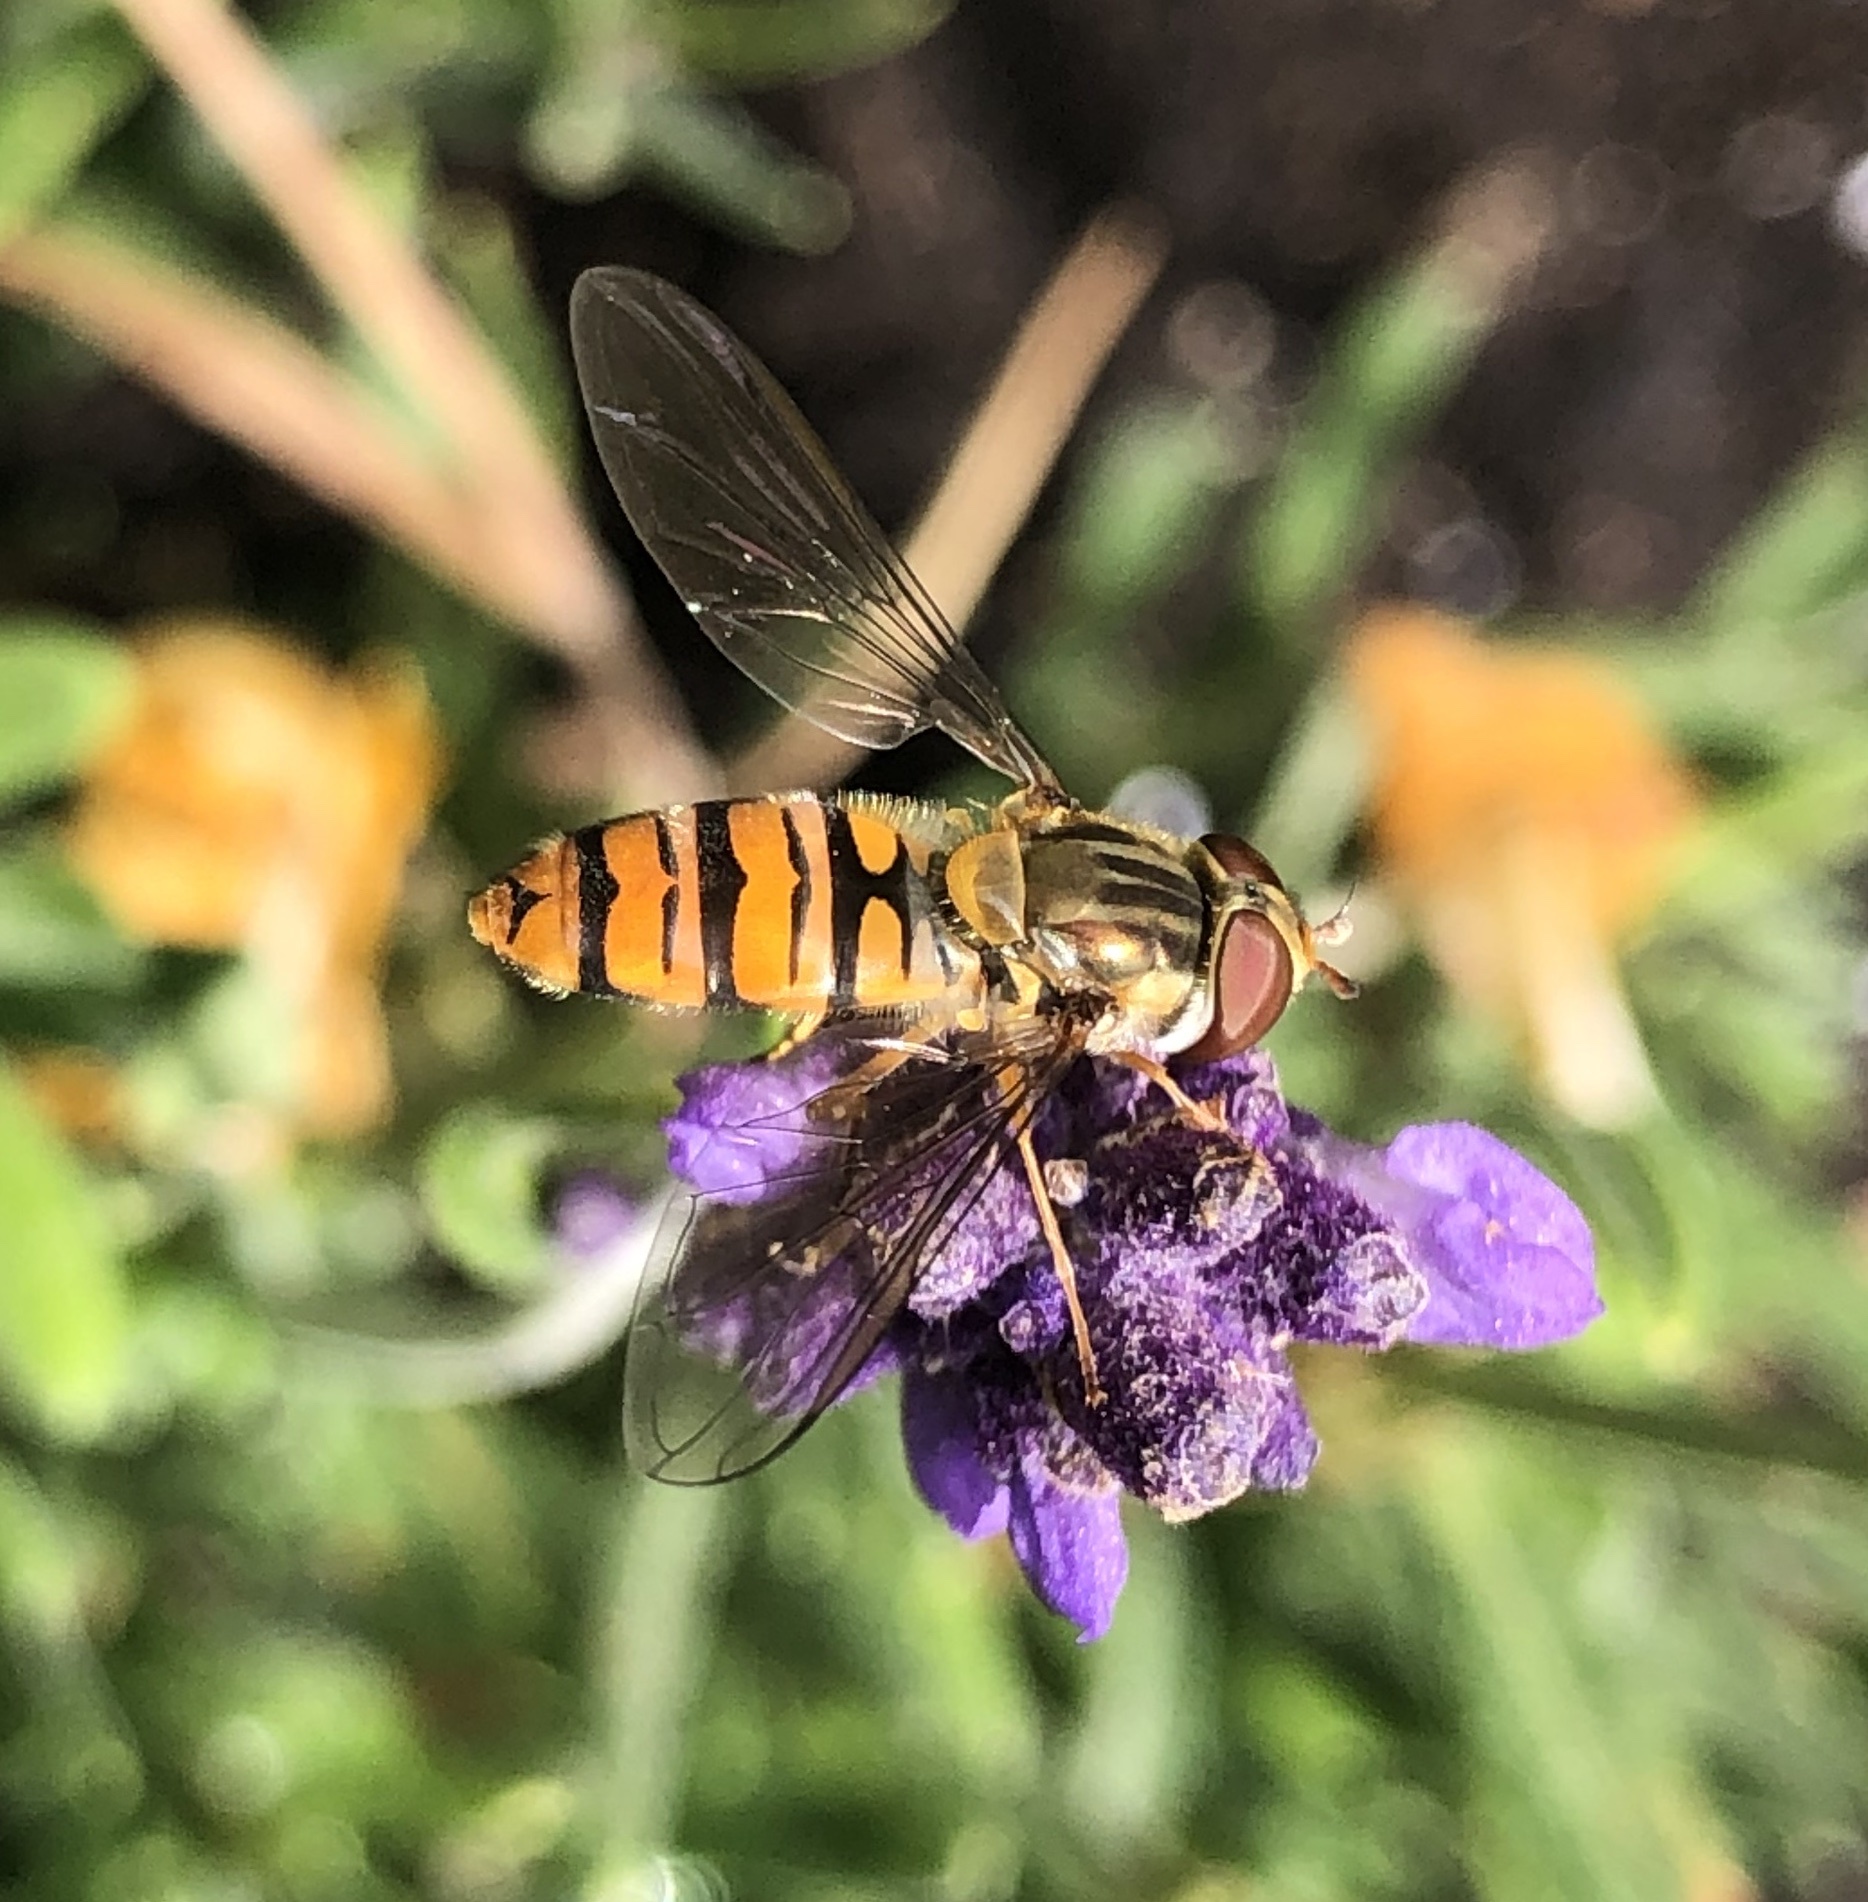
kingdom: Animalia
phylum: Arthropoda
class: Insecta
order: Diptera
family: Syrphidae
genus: Episyrphus
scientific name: Episyrphus balteatus
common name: Marmalade hoverfly
